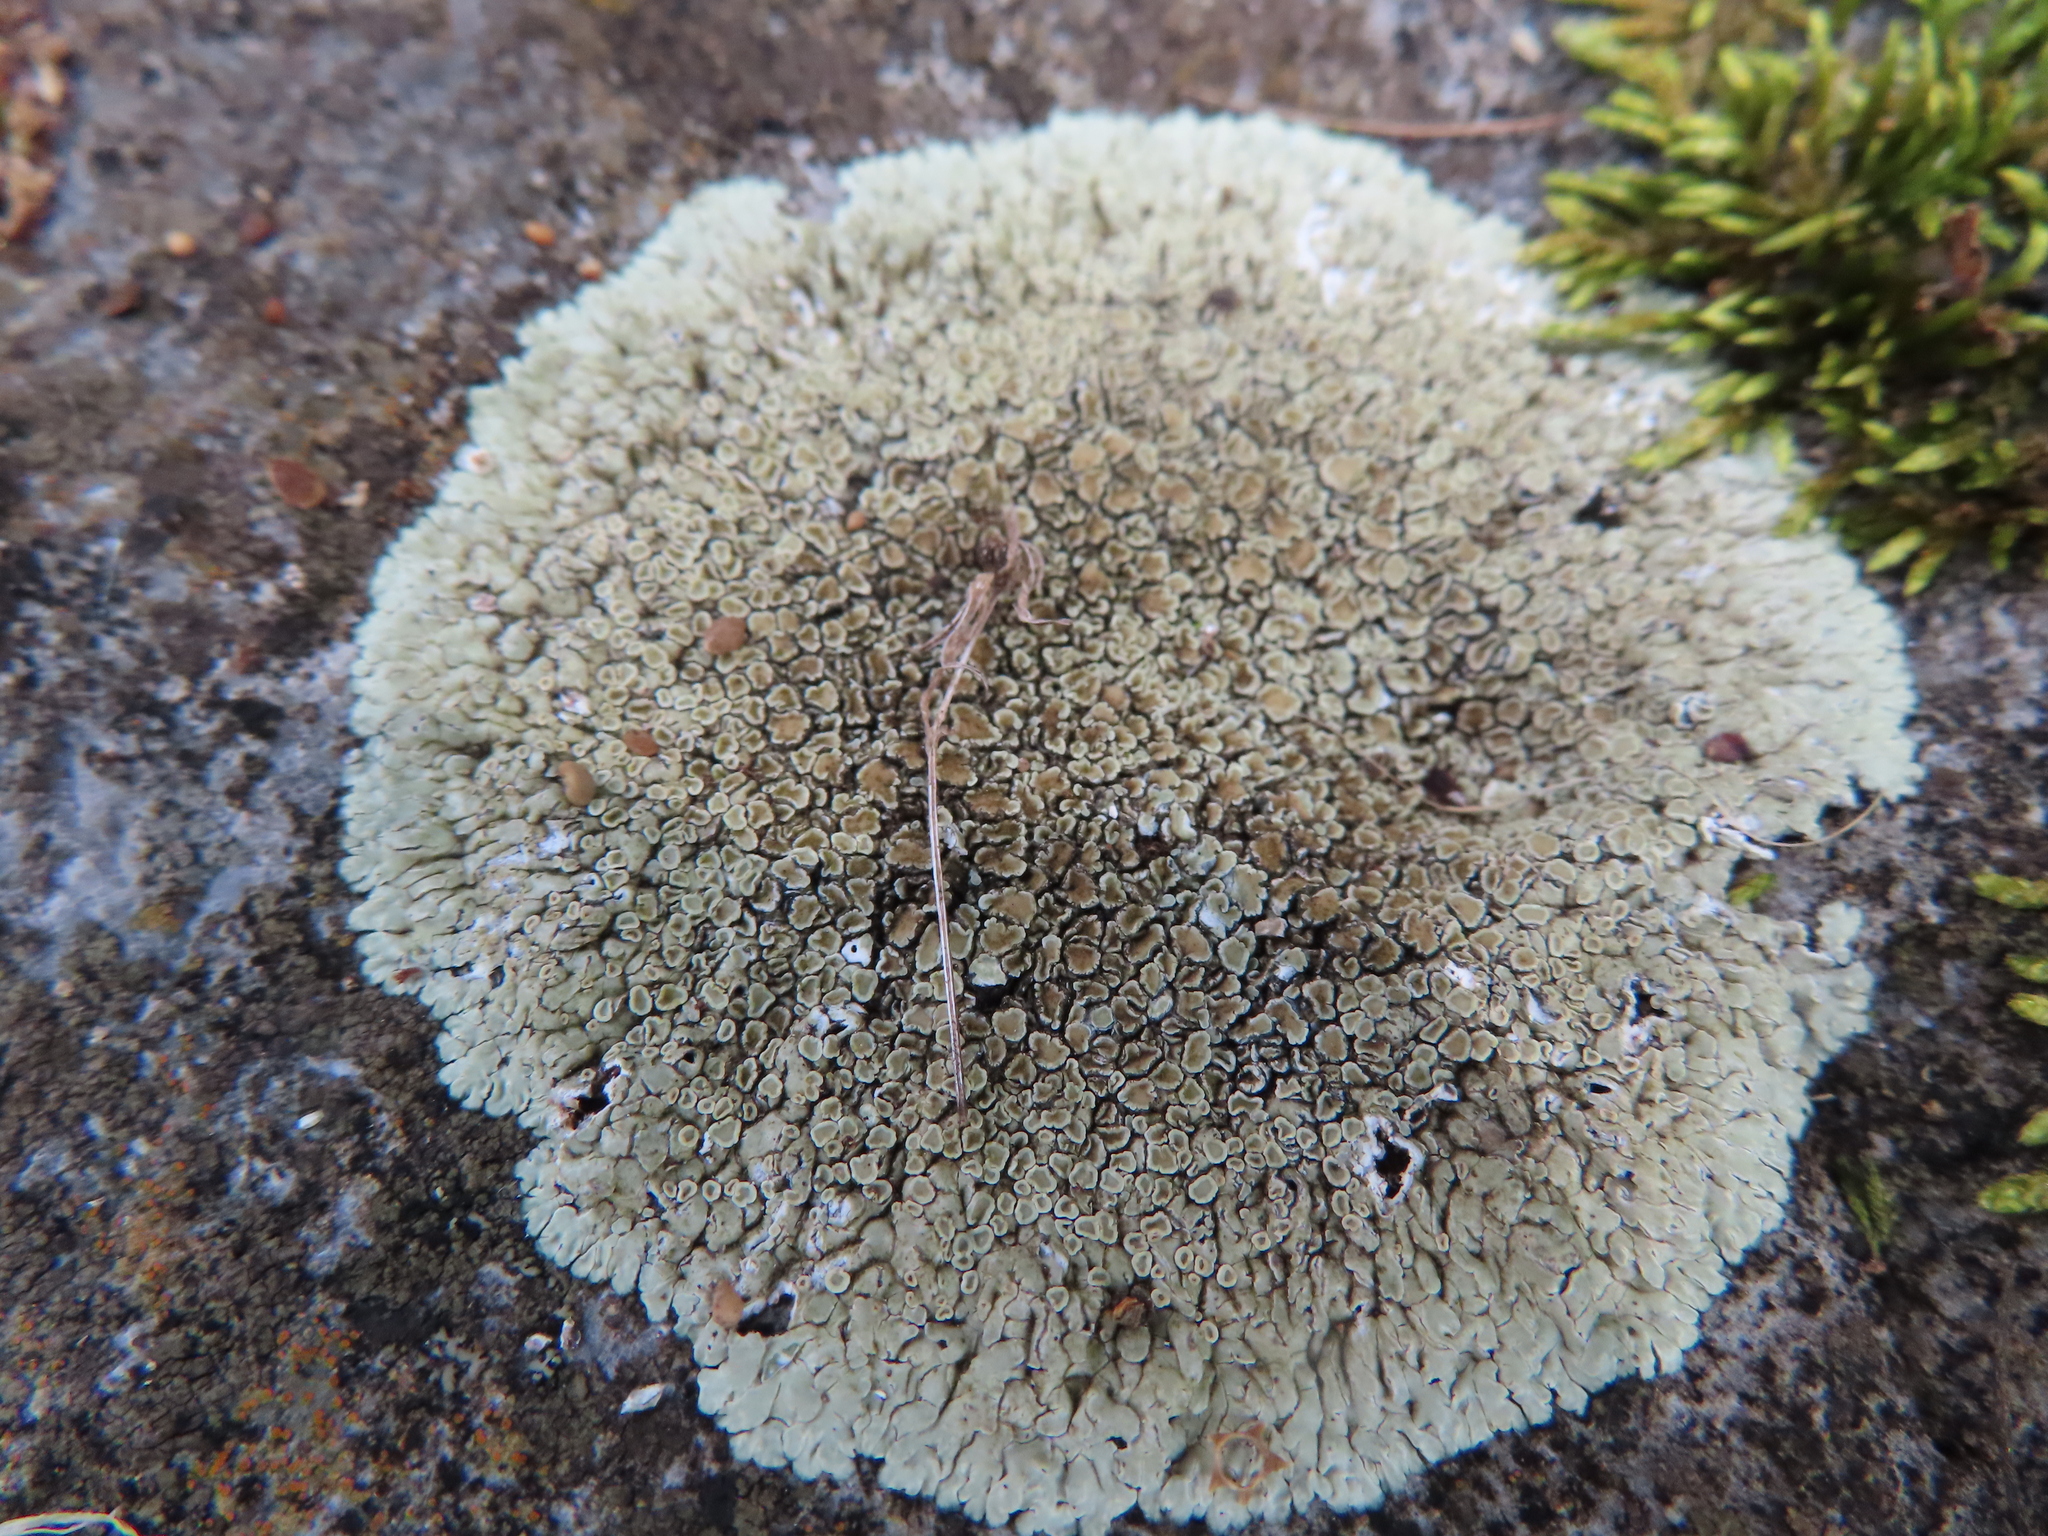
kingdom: Fungi
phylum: Ascomycota
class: Lecanoromycetes
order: Lecanorales
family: Lecanoraceae
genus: Protoparmeliopsis
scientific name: Protoparmeliopsis muralis
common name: Stonewall rim lichen
